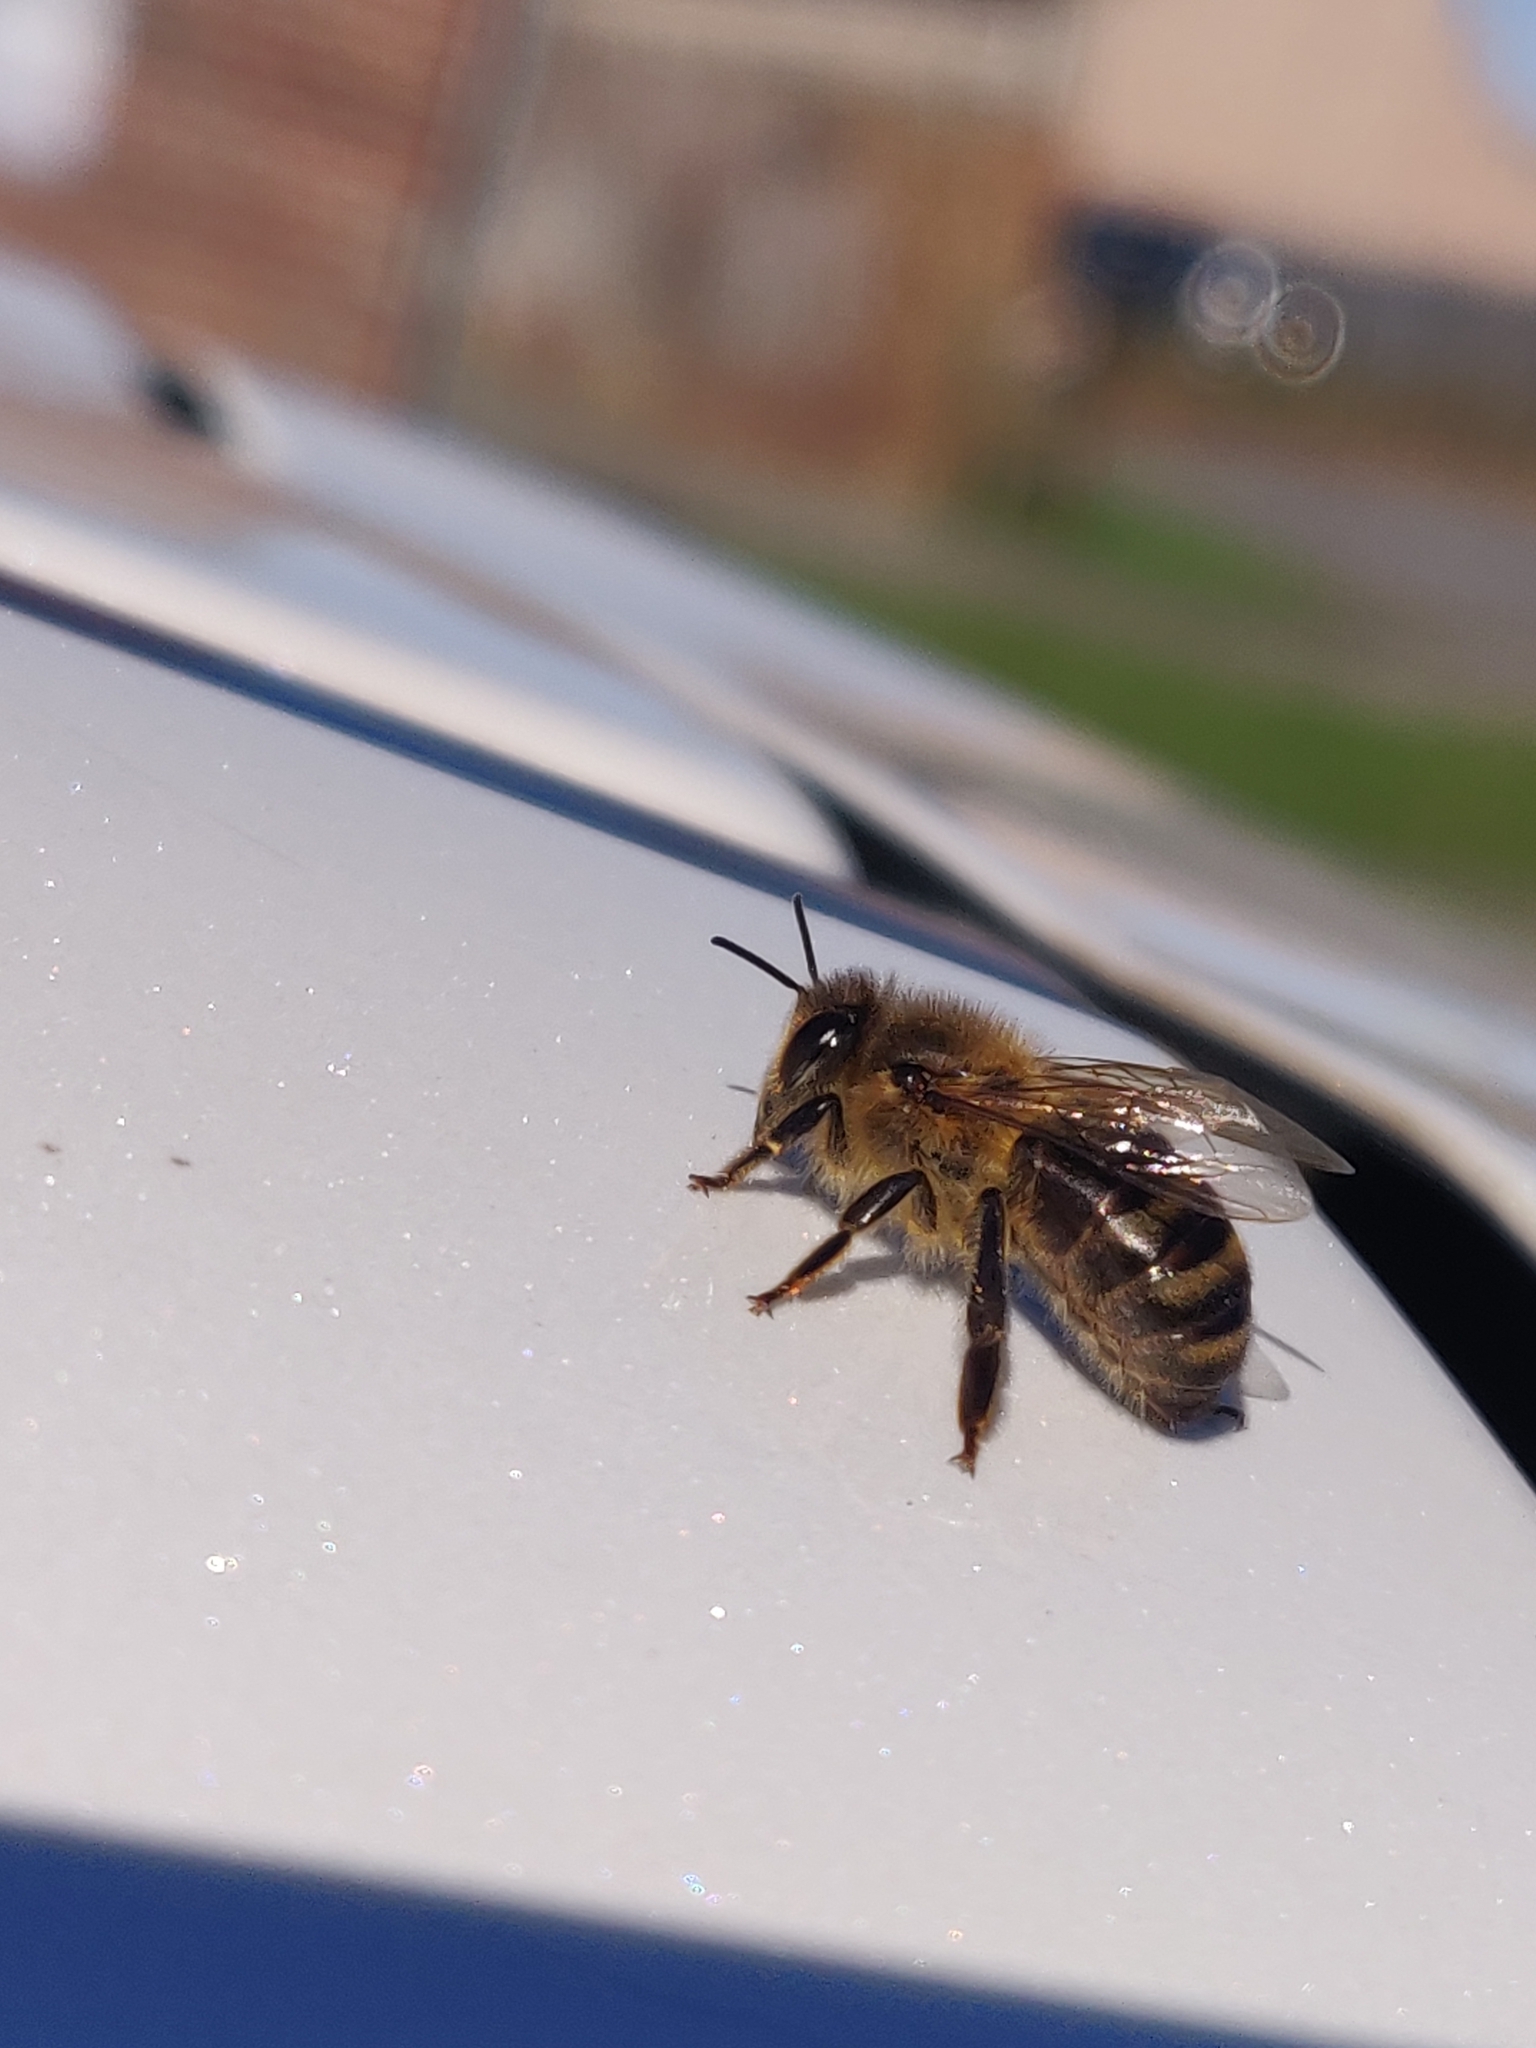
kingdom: Animalia
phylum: Arthropoda
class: Insecta
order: Hymenoptera
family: Apidae
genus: Apis
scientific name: Apis mellifera
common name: Honey bee
